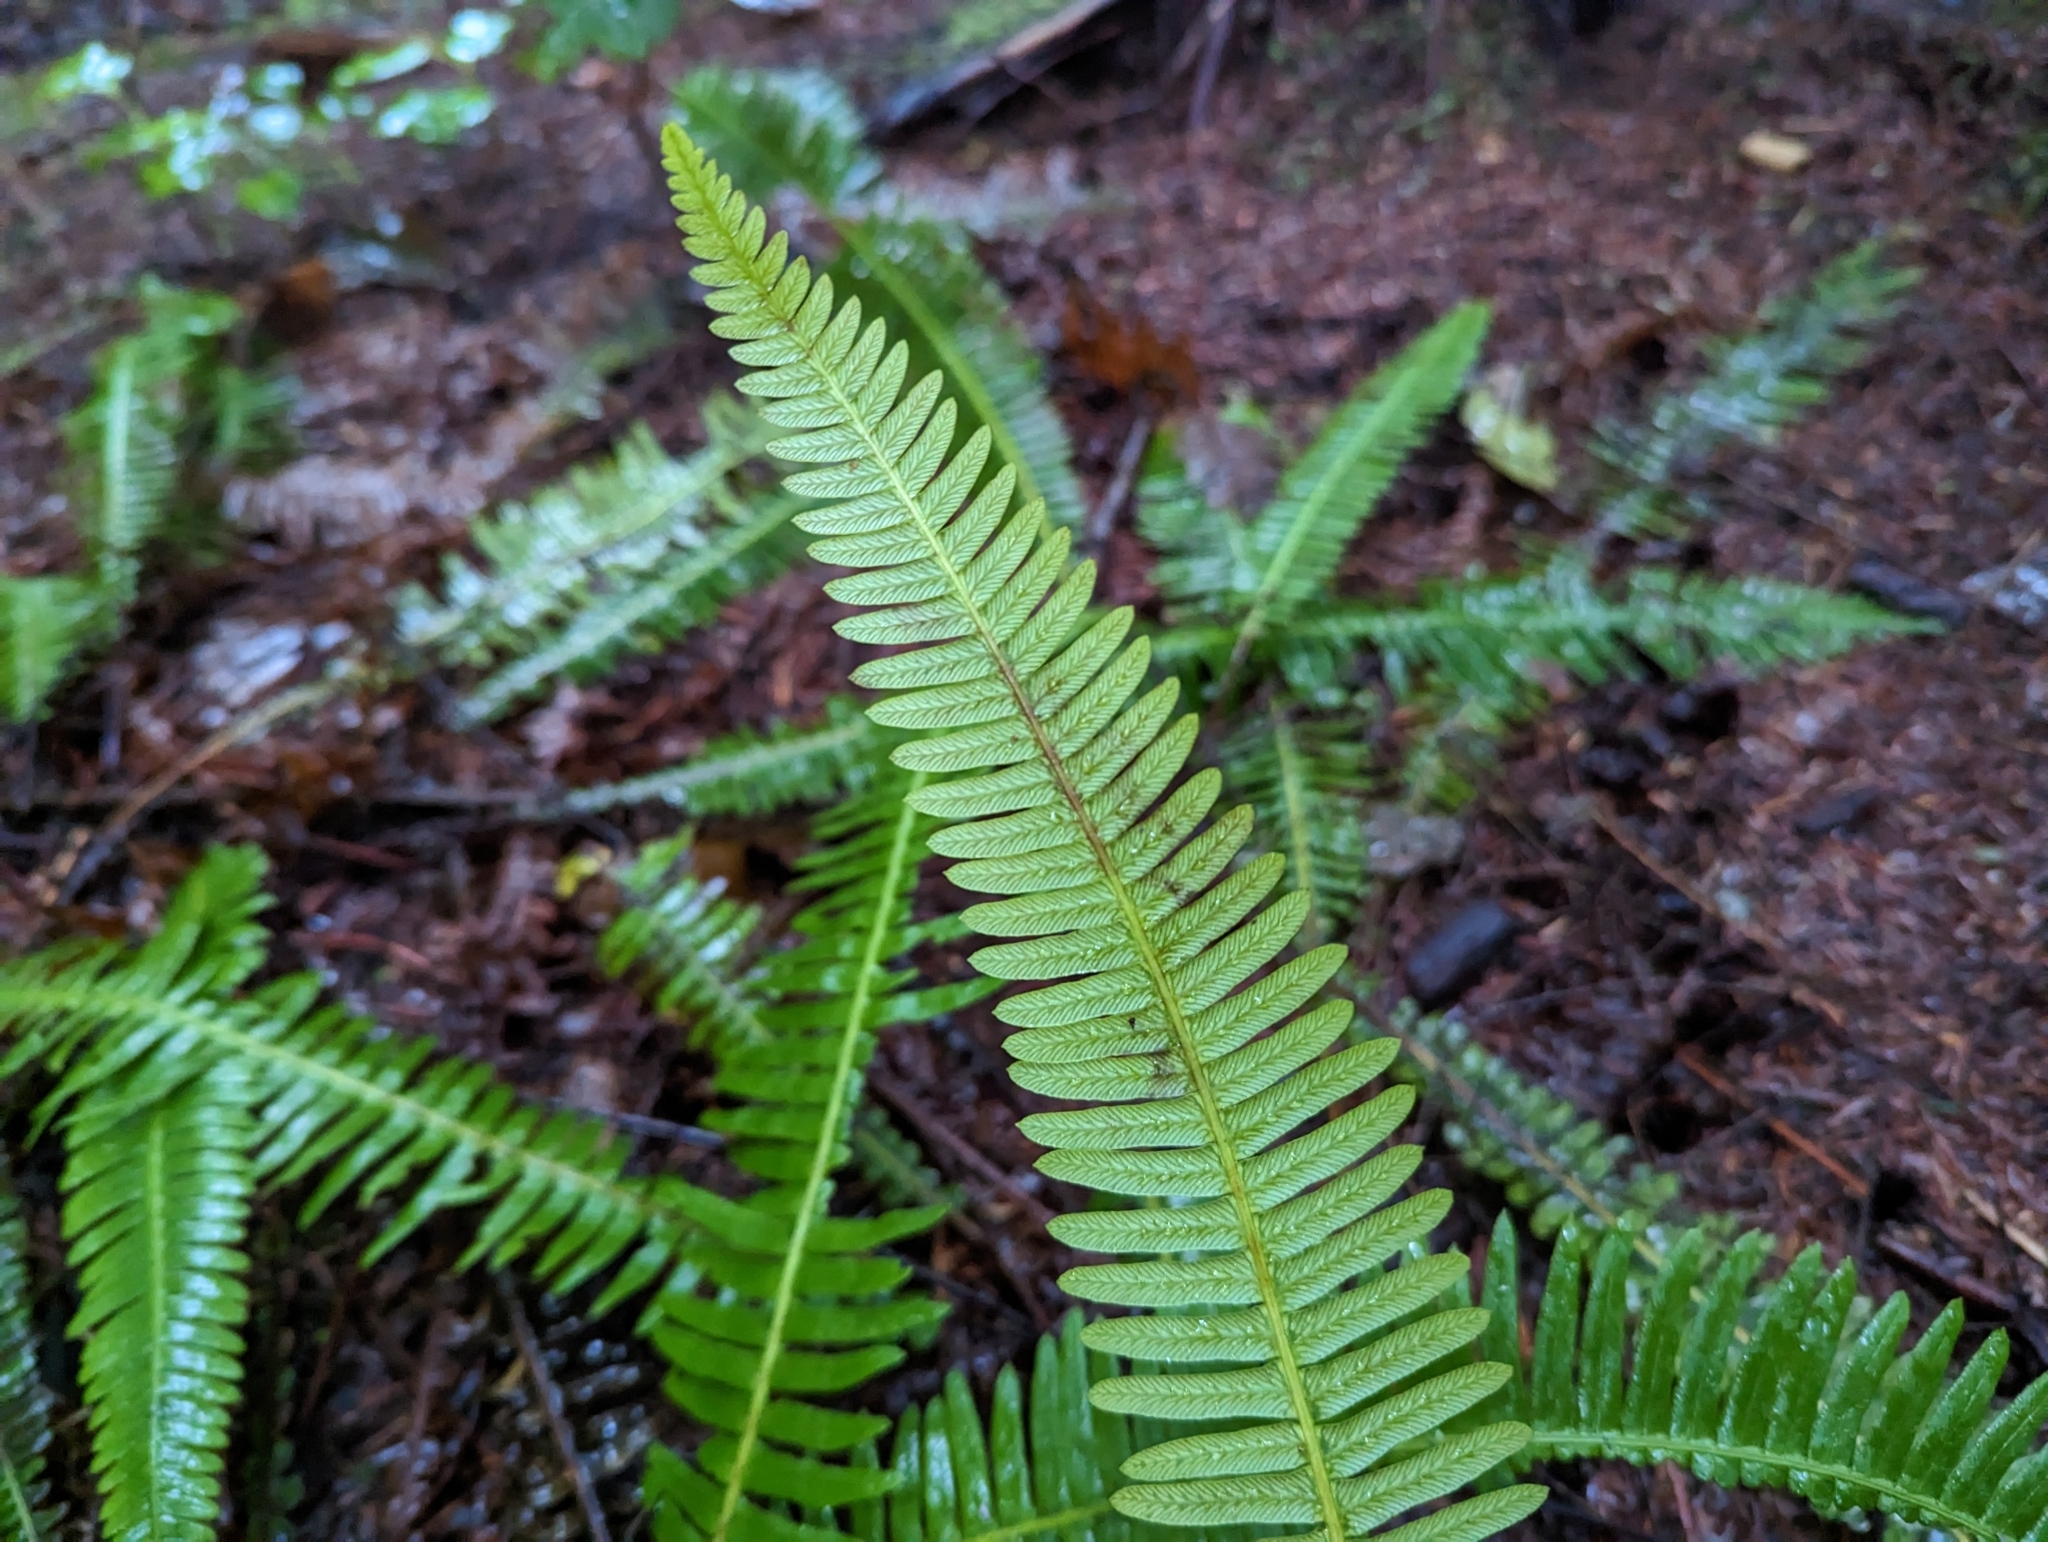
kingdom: Plantae
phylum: Tracheophyta
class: Polypodiopsida
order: Polypodiales
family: Blechnaceae
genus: Struthiopteris
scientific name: Struthiopteris spicant
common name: Deer fern
